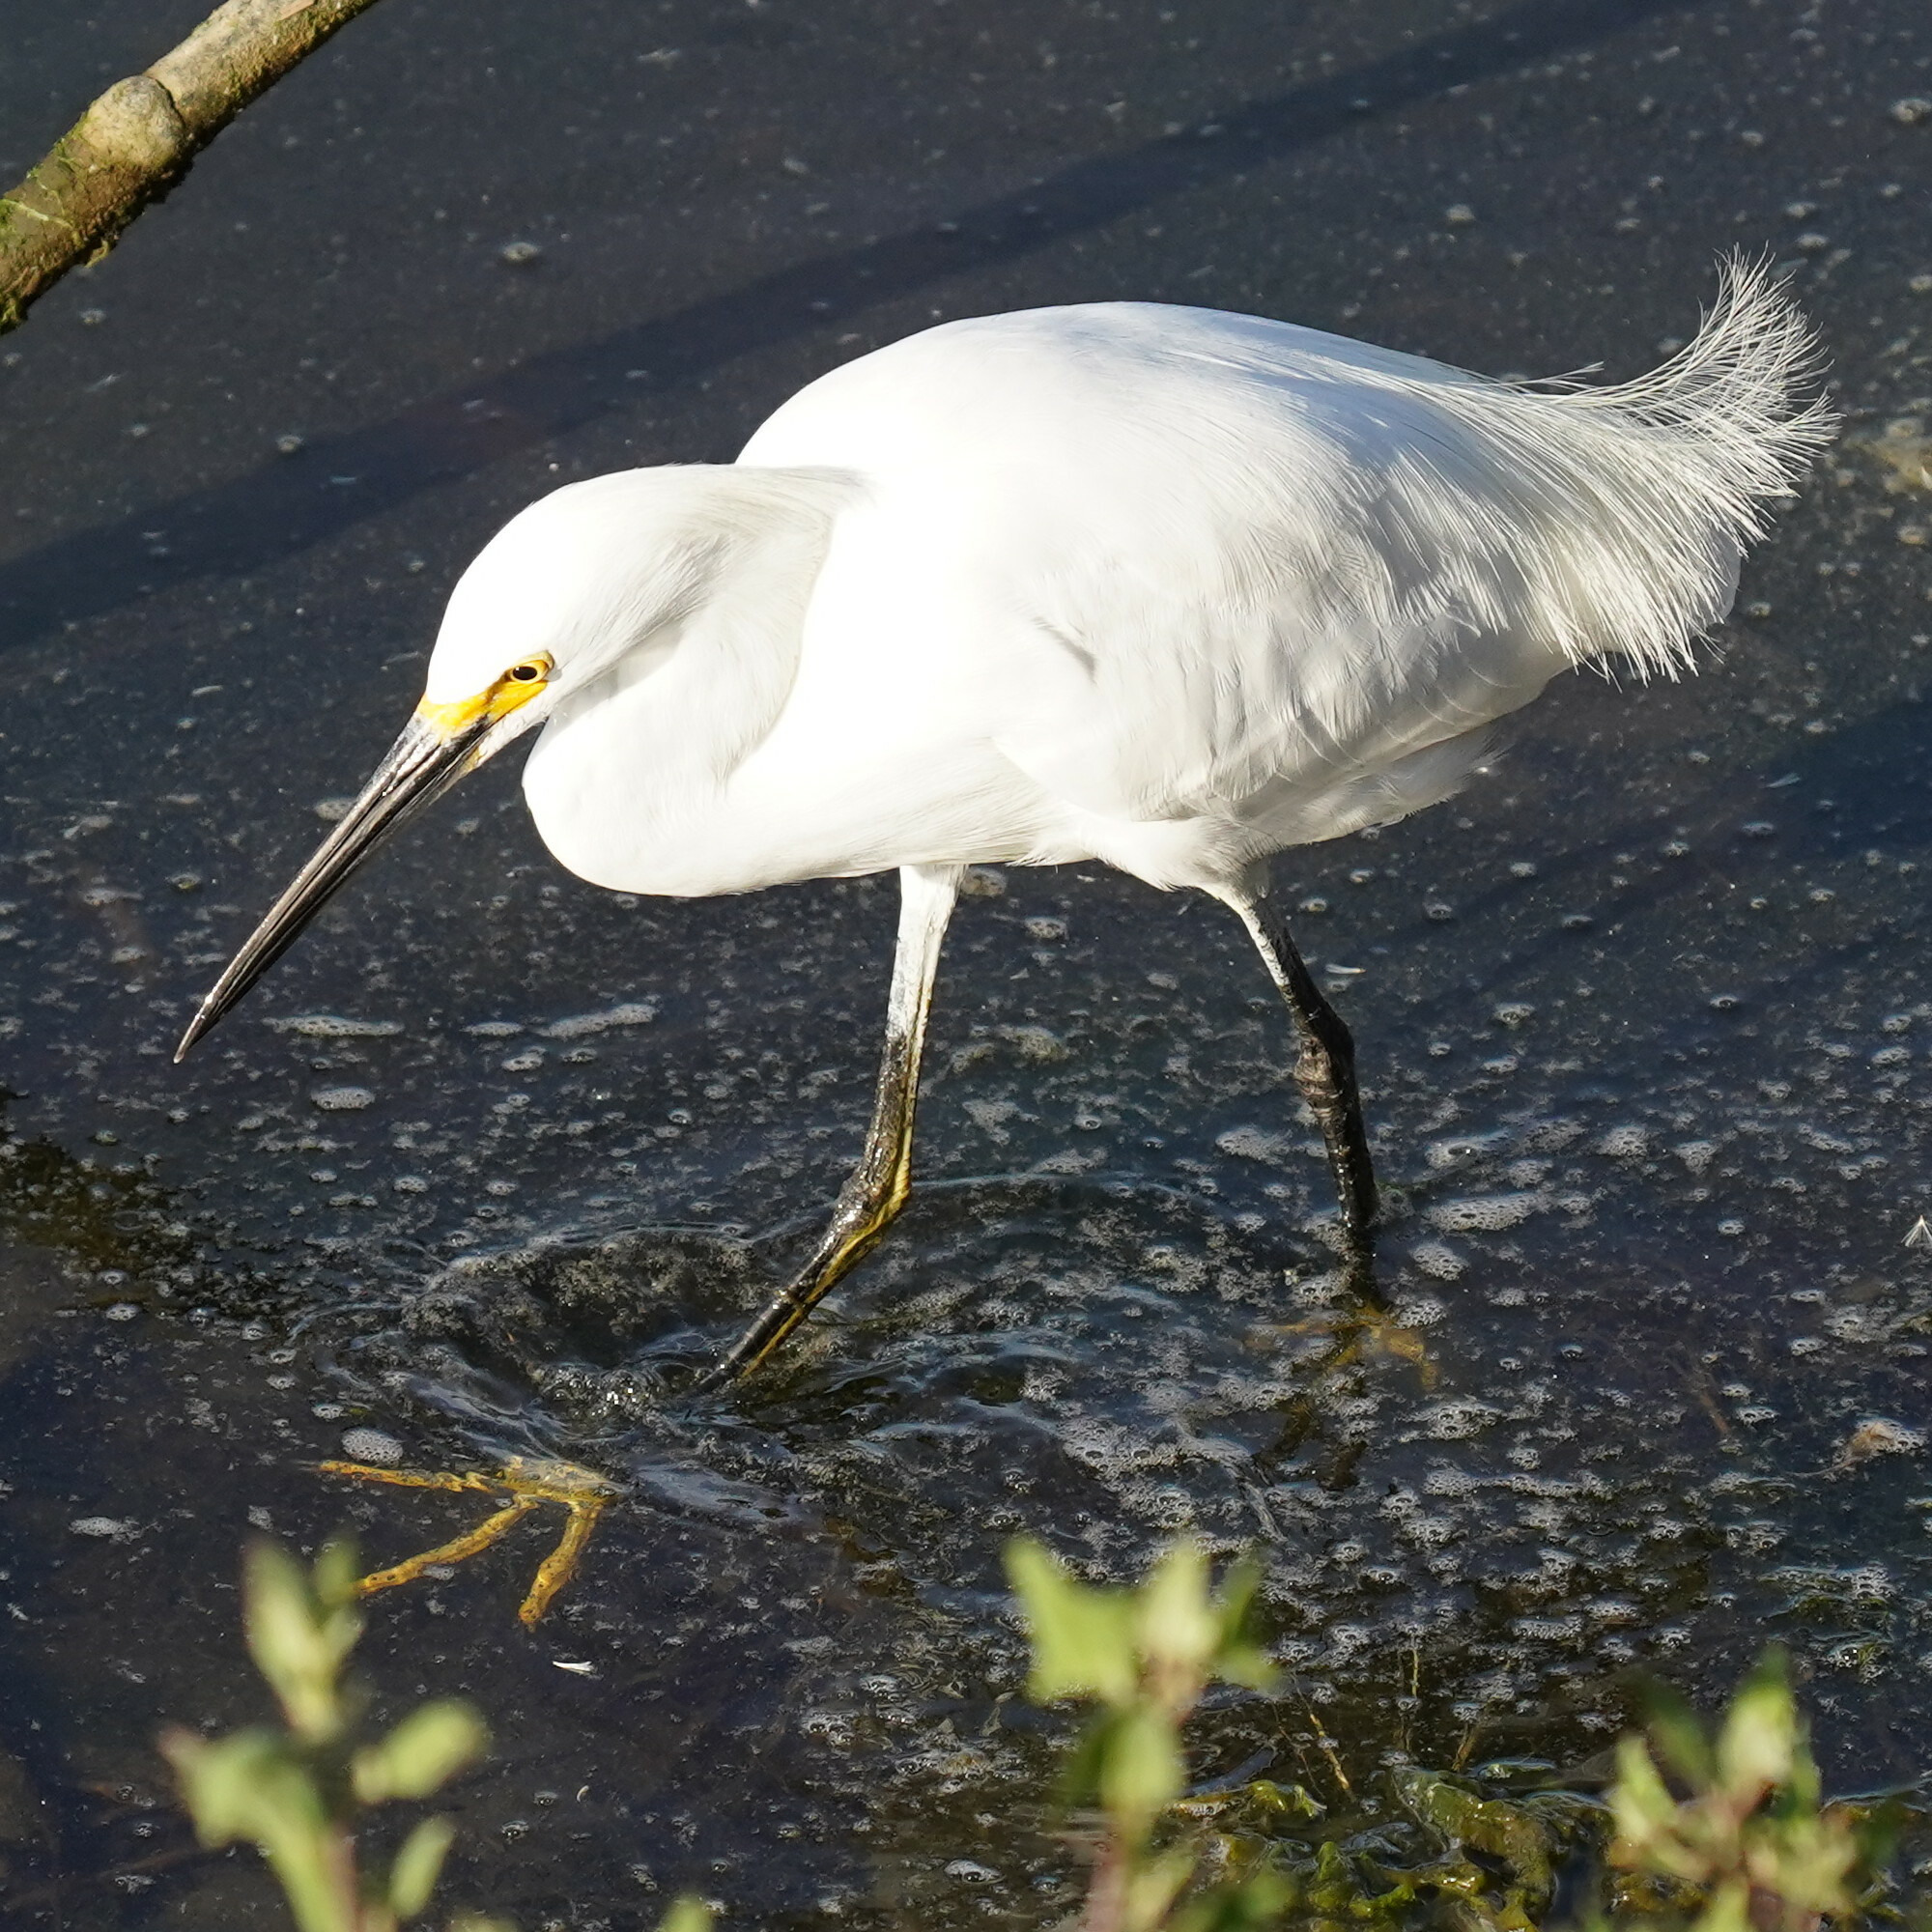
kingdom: Animalia
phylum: Chordata
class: Aves
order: Pelecaniformes
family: Ardeidae
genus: Egretta
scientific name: Egretta thula
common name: Snowy egret
